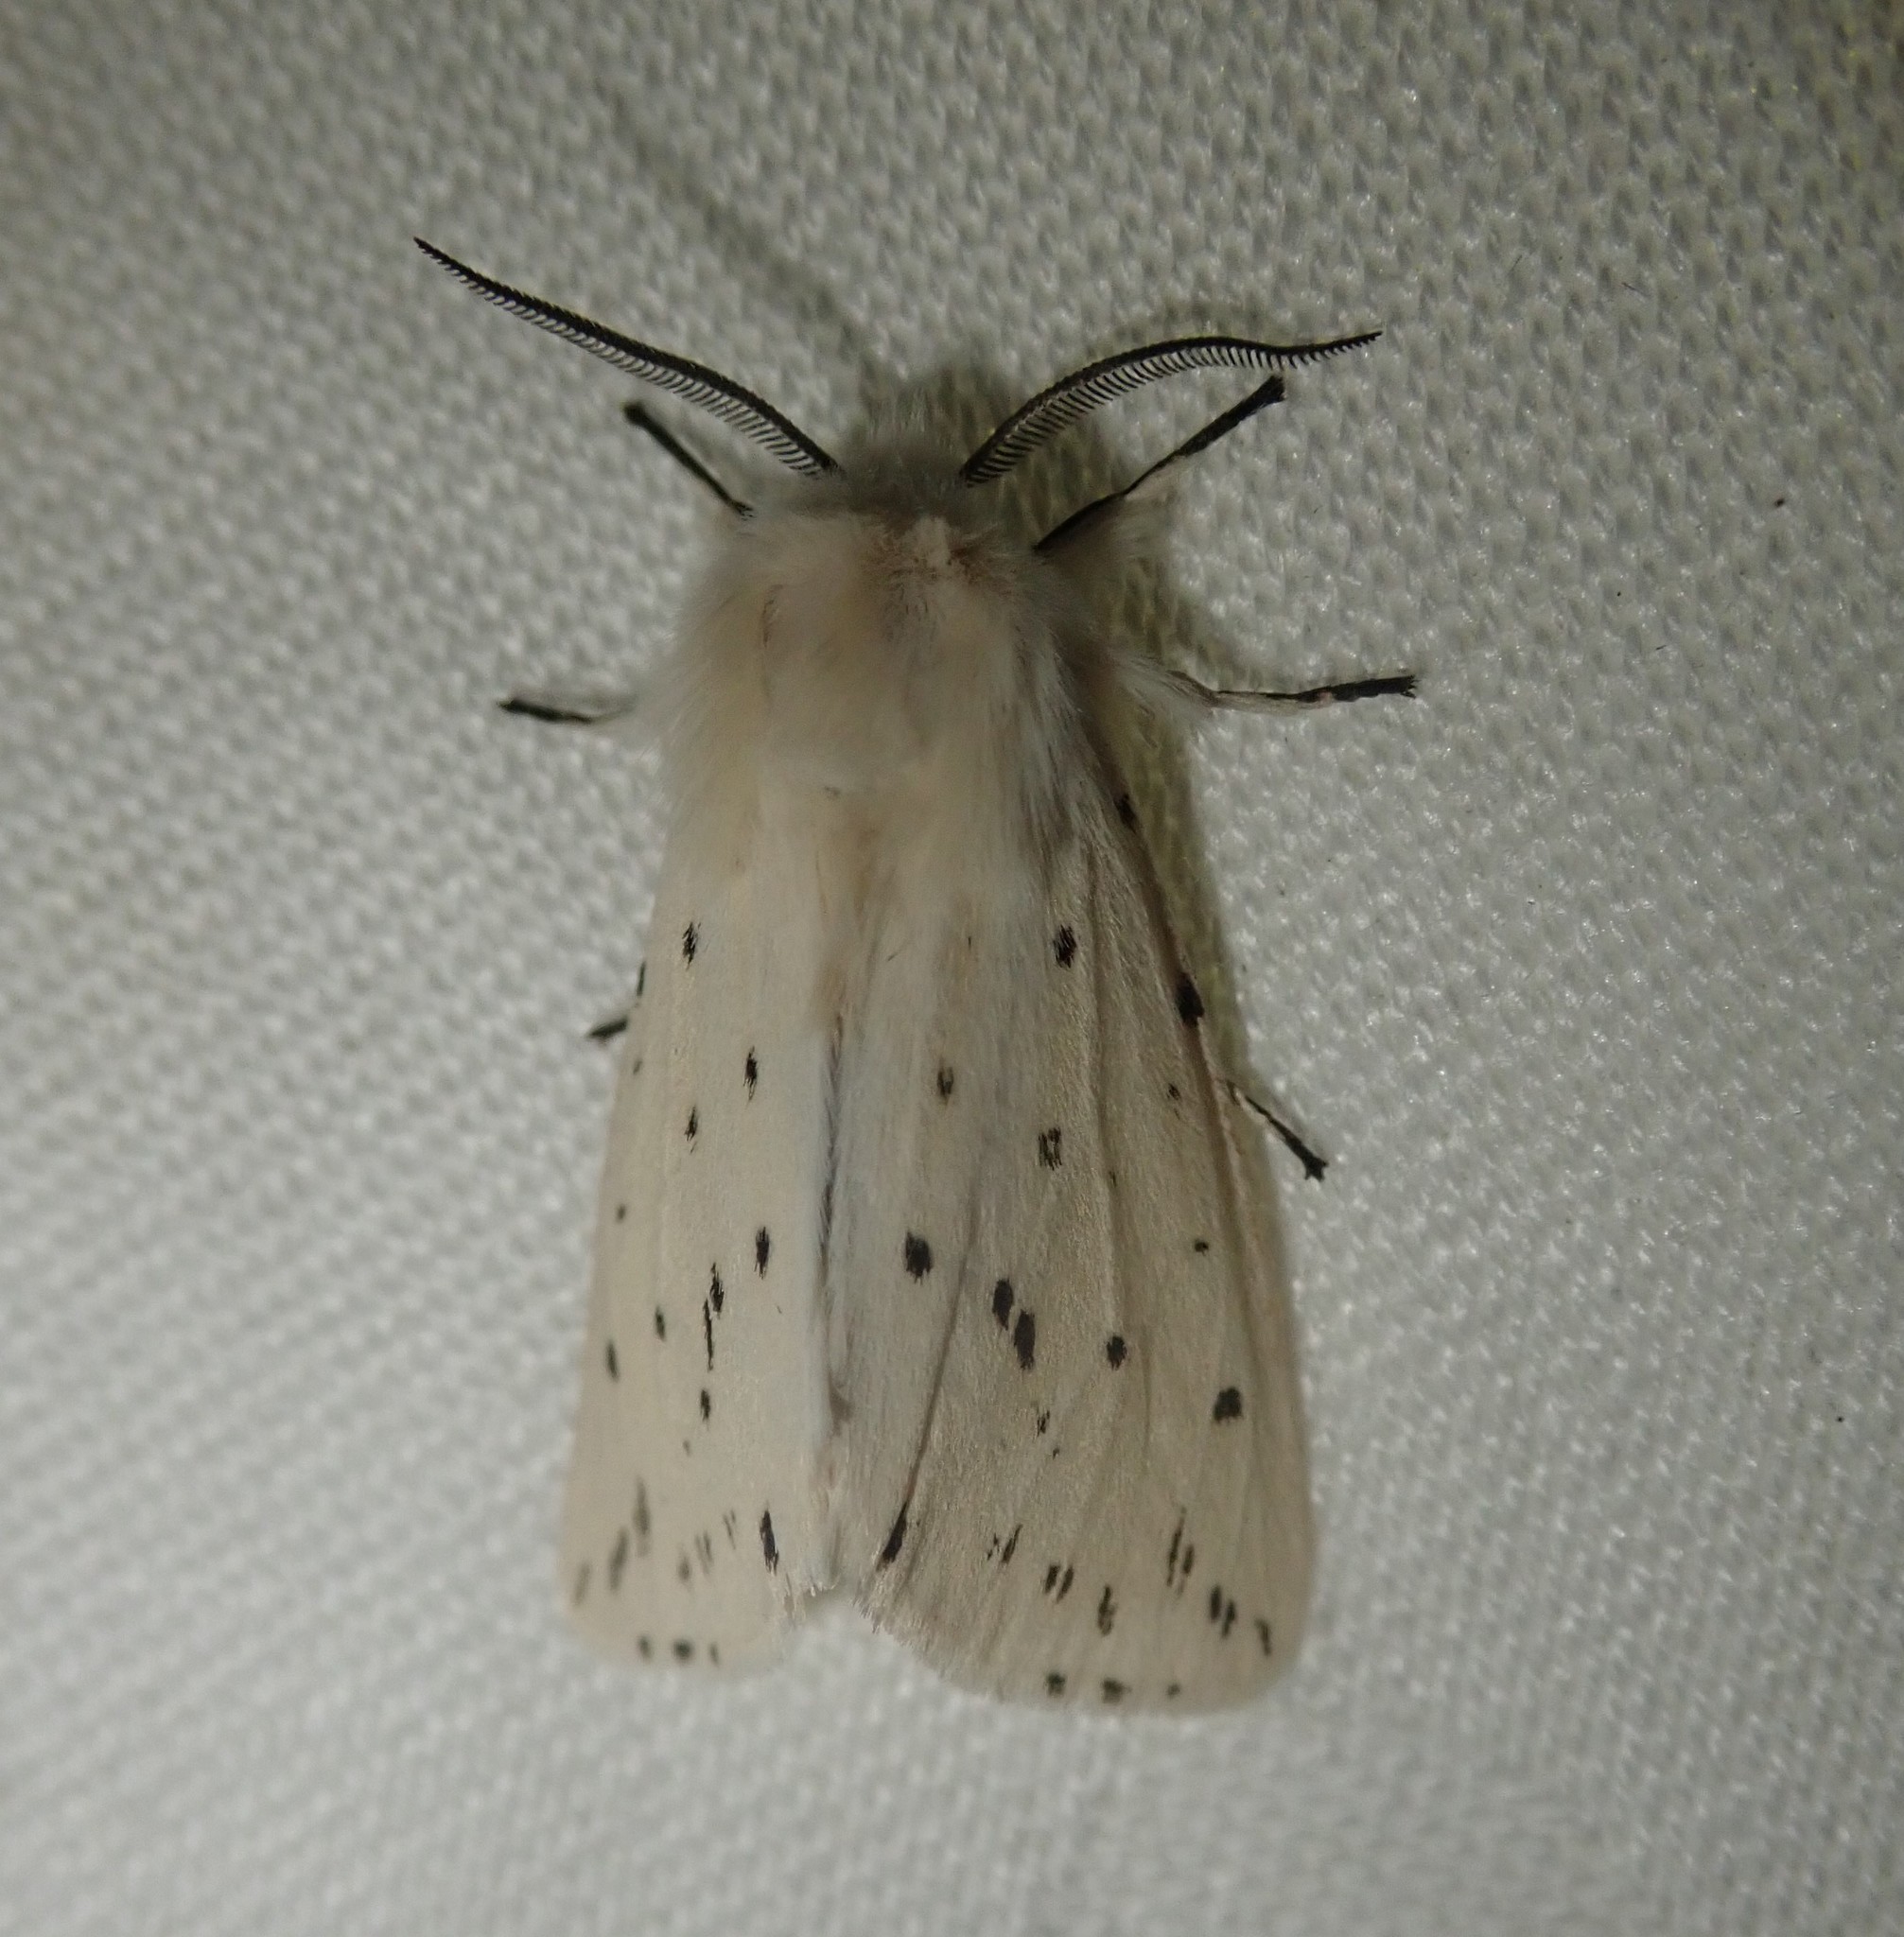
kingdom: Animalia
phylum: Arthropoda
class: Insecta
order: Lepidoptera
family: Erebidae
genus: Spilosoma
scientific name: Spilosoma lubricipeda
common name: White ermine
